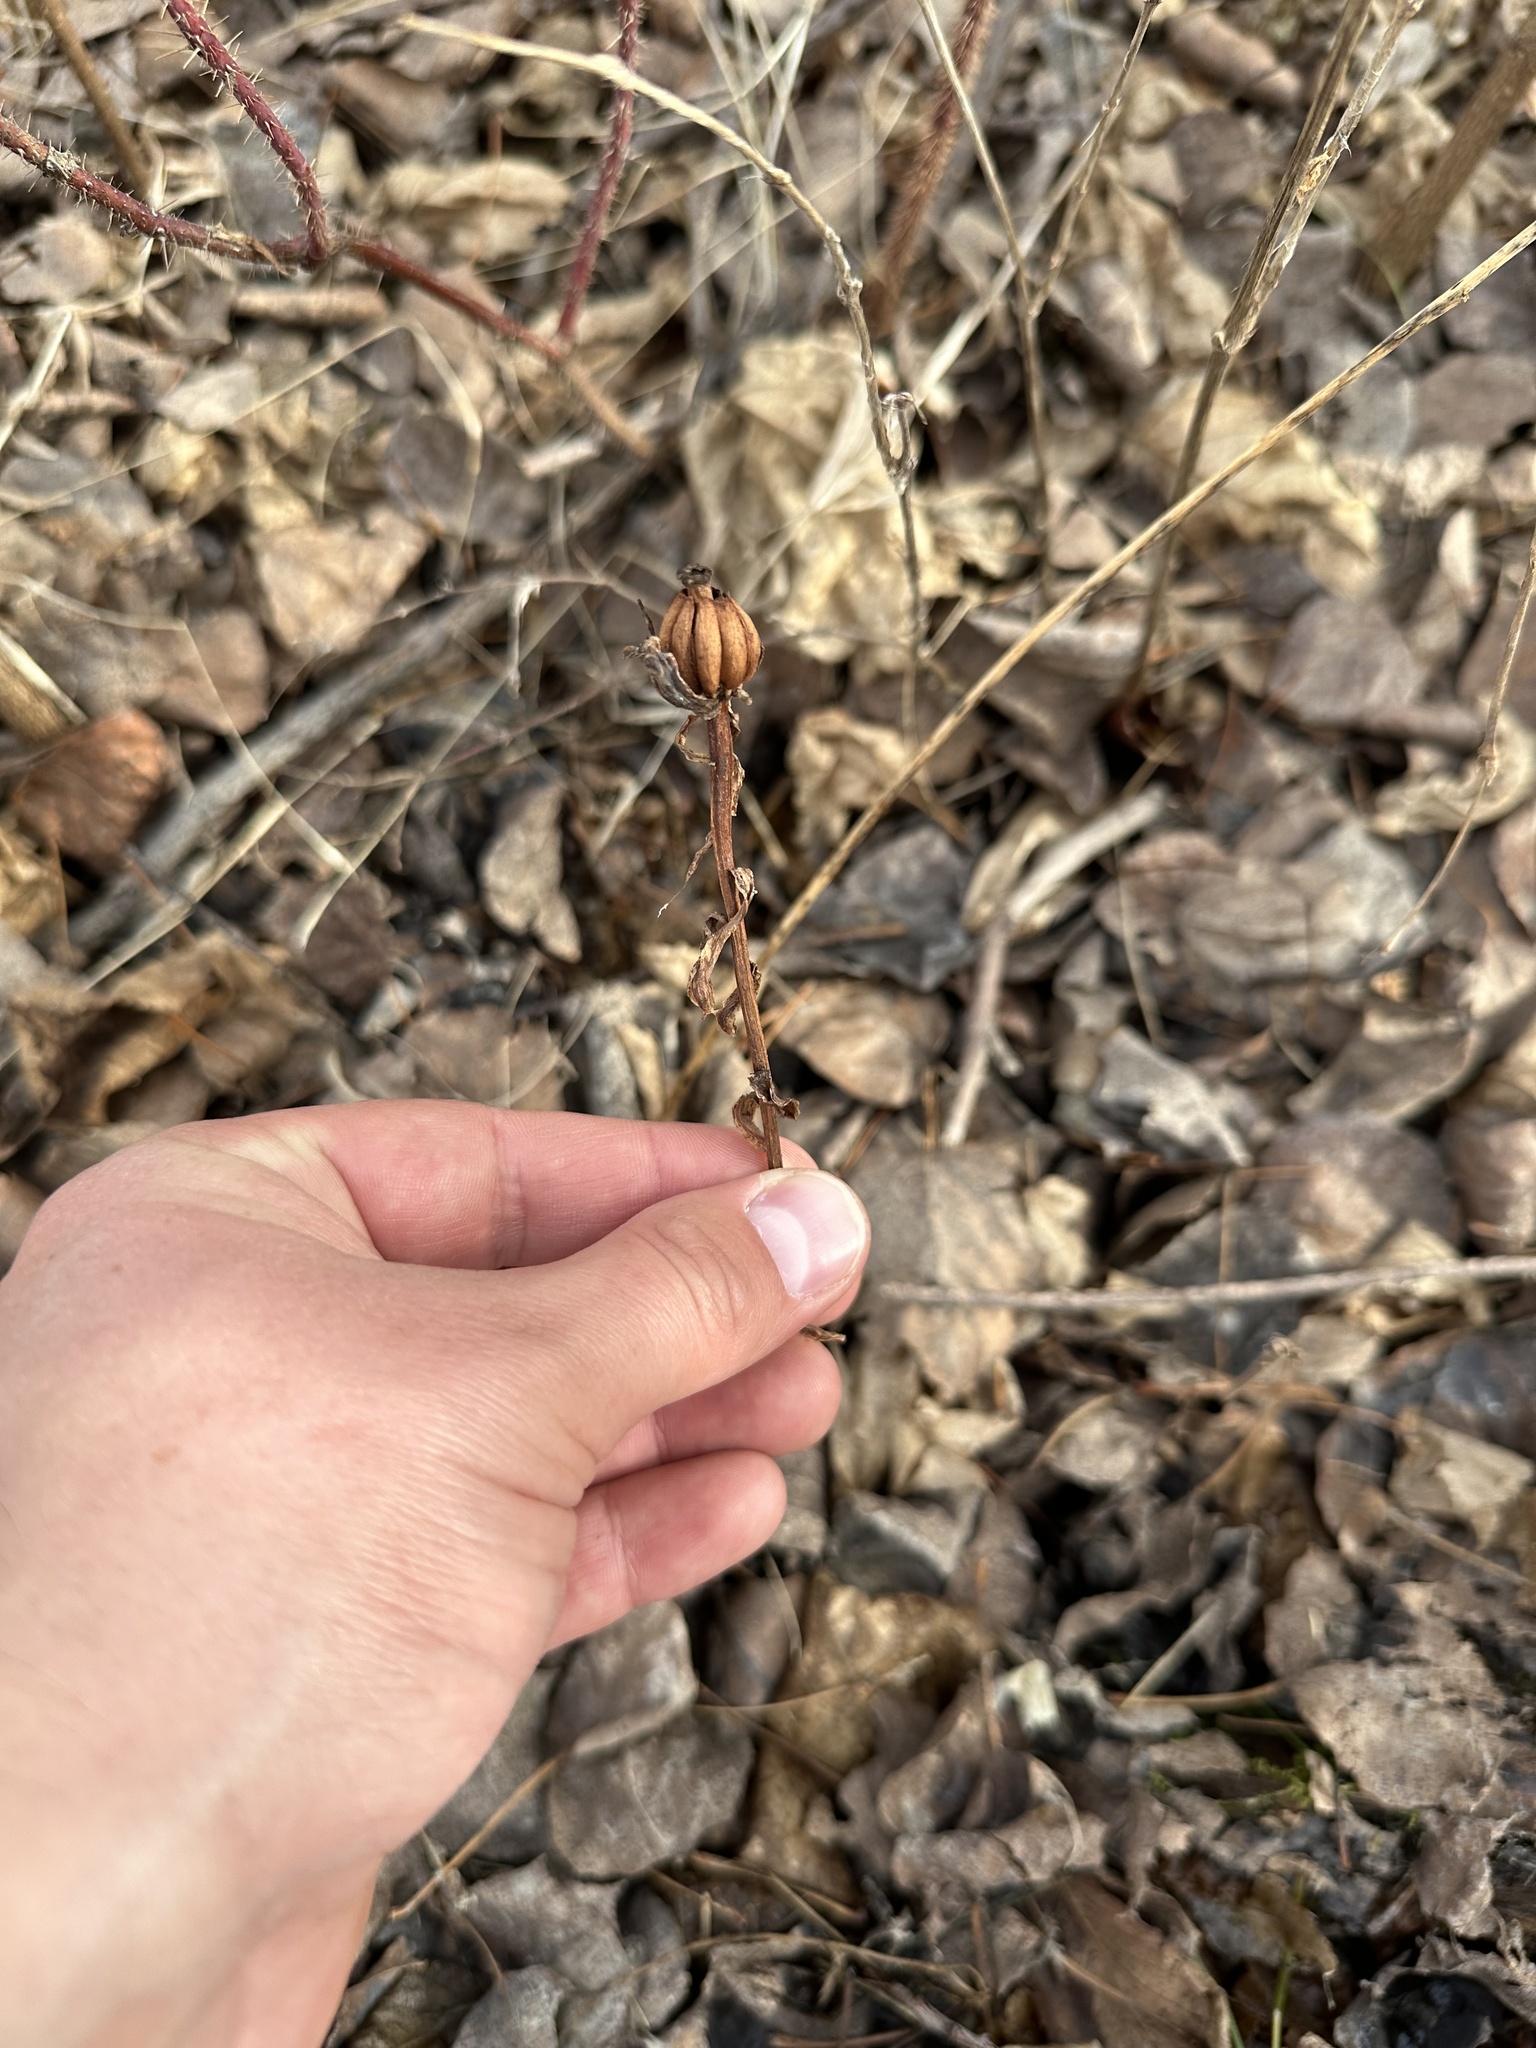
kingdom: Plantae
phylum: Tracheophyta
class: Magnoliopsida
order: Ericales
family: Ericaceae
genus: Monotropa
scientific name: Monotropa uniflora
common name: Convulsion root
